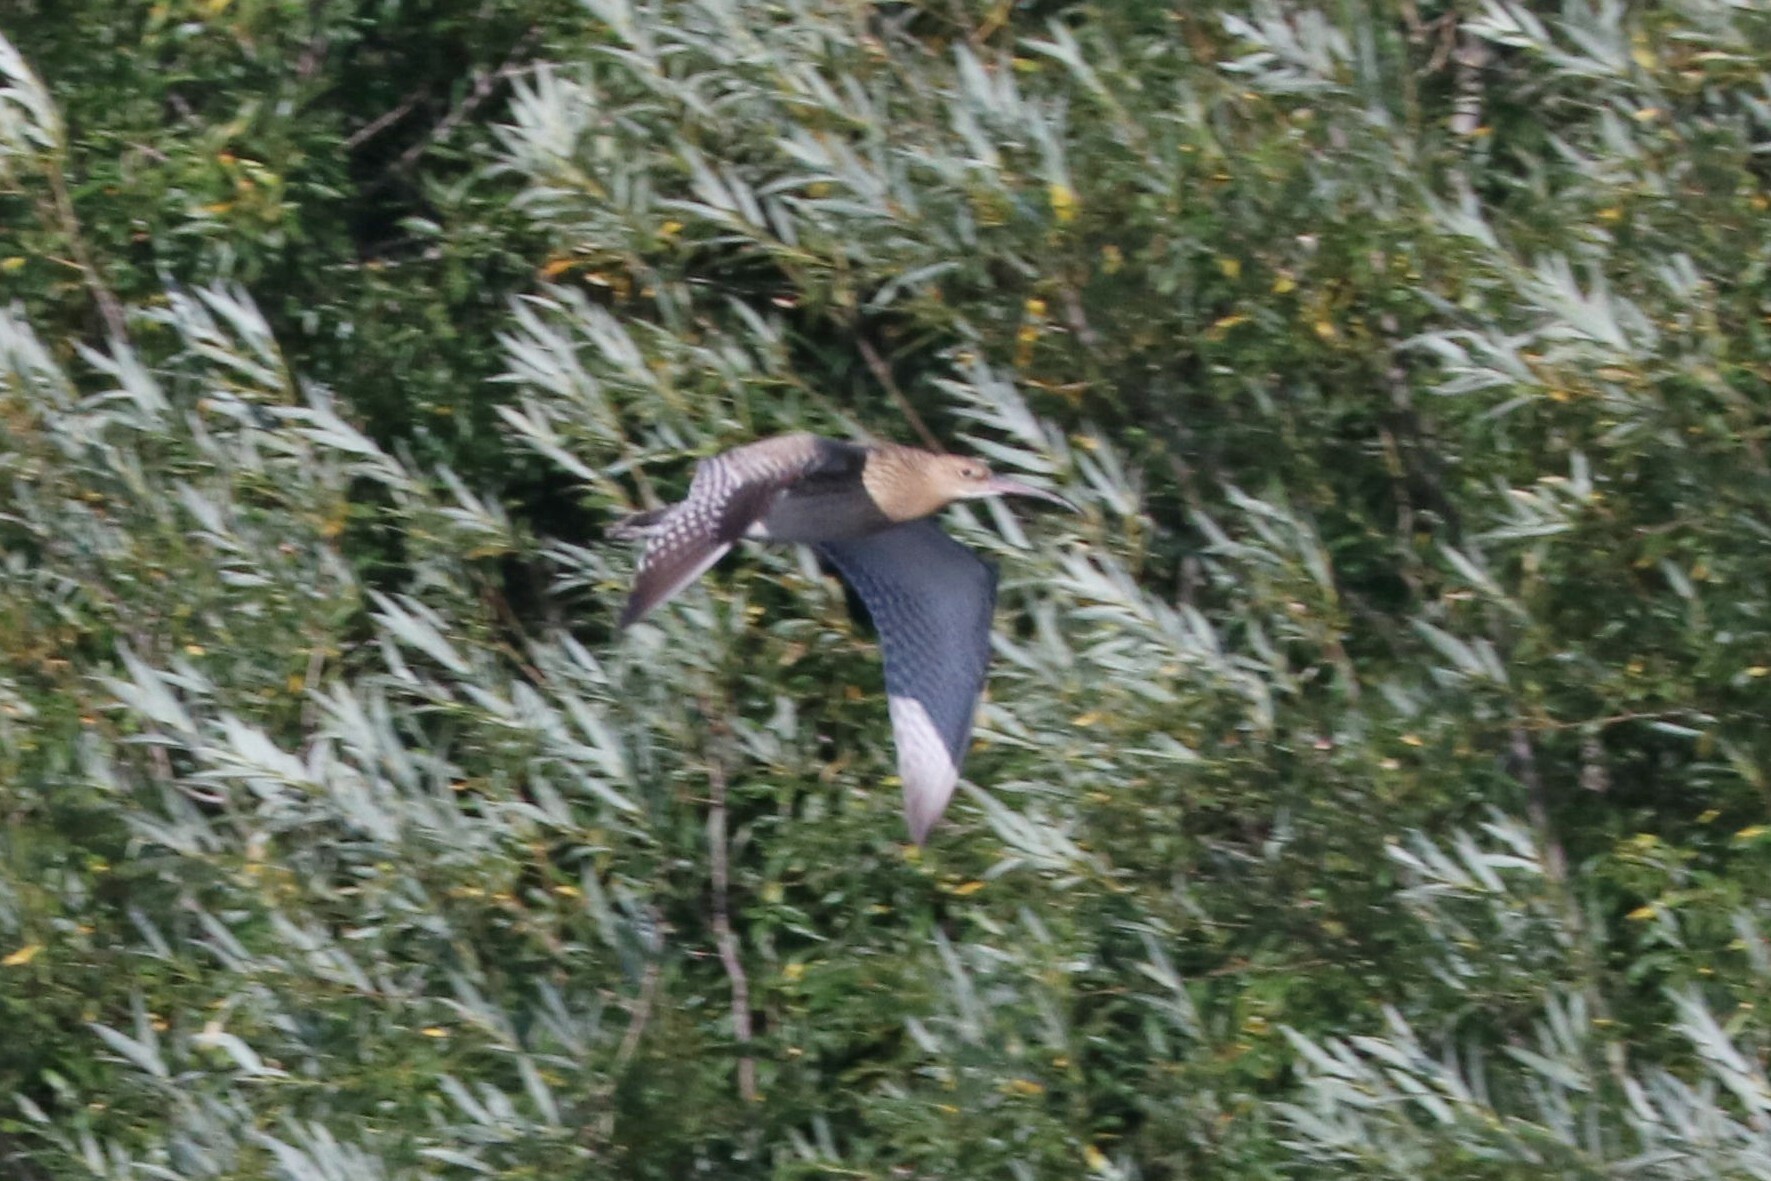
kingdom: Animalia
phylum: Chordata
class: Aves
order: Charadriiformes
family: Scolopacidae
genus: Numenius
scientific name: Numenius arquata
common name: Eurasian curlew
